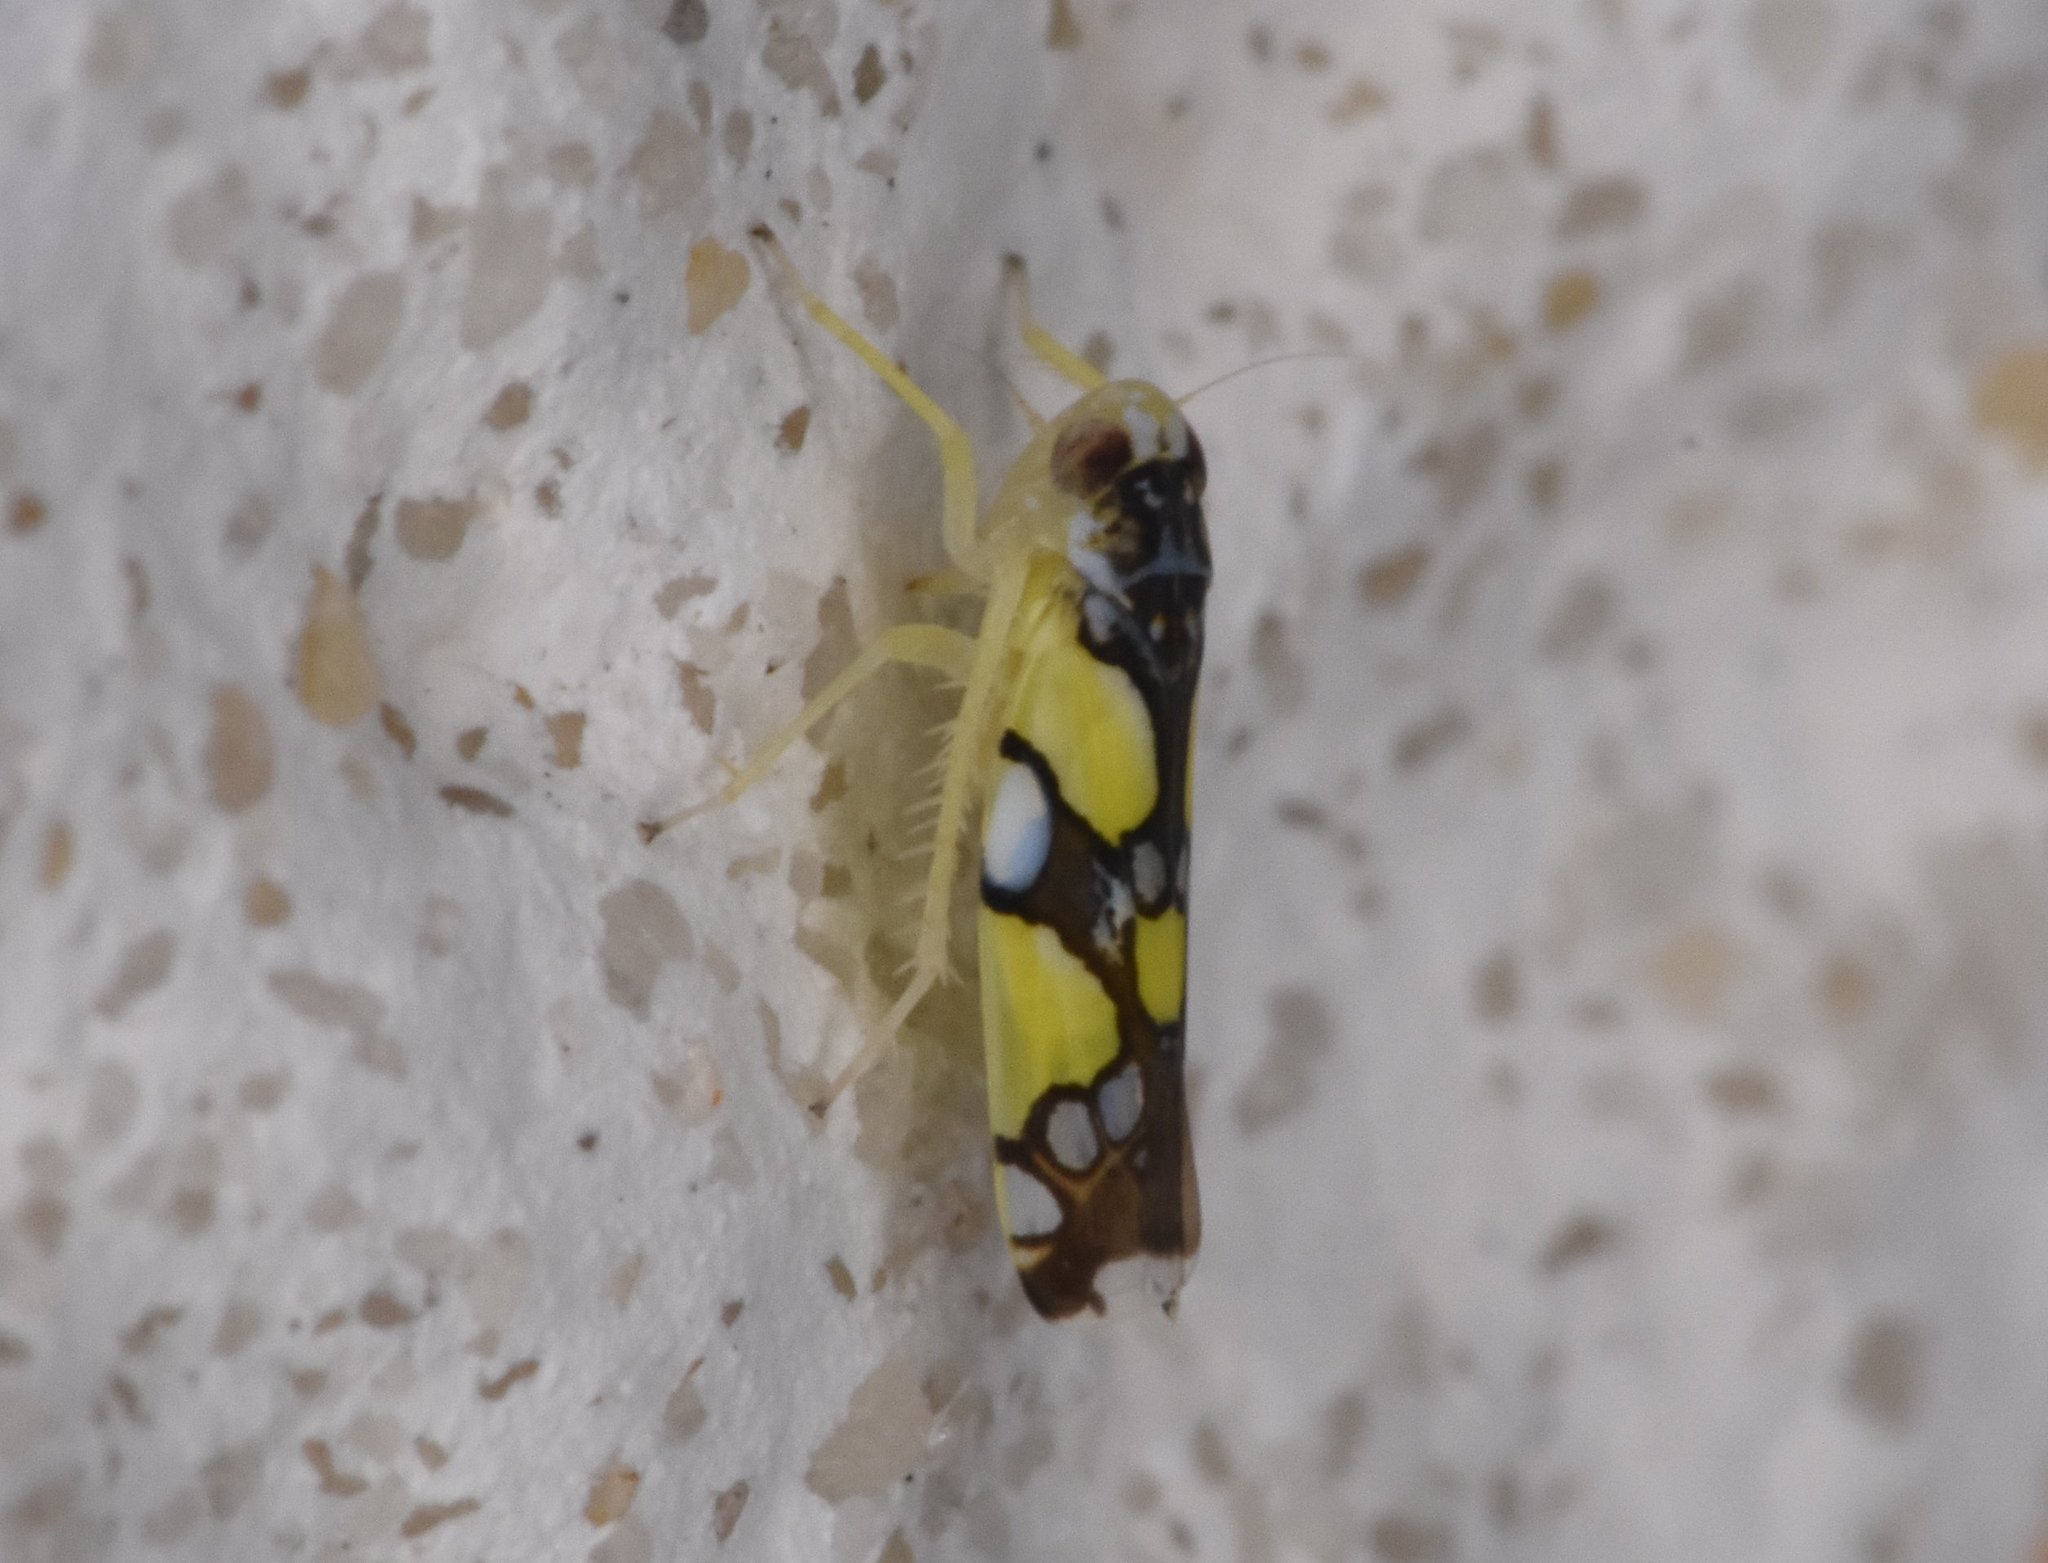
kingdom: Animalia
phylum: Arthropoda
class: Insecta
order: Hemiptera
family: Cicadellidae
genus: Protalebrella
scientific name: Protalebrella brasiliensis
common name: Brasilian leafhopper
